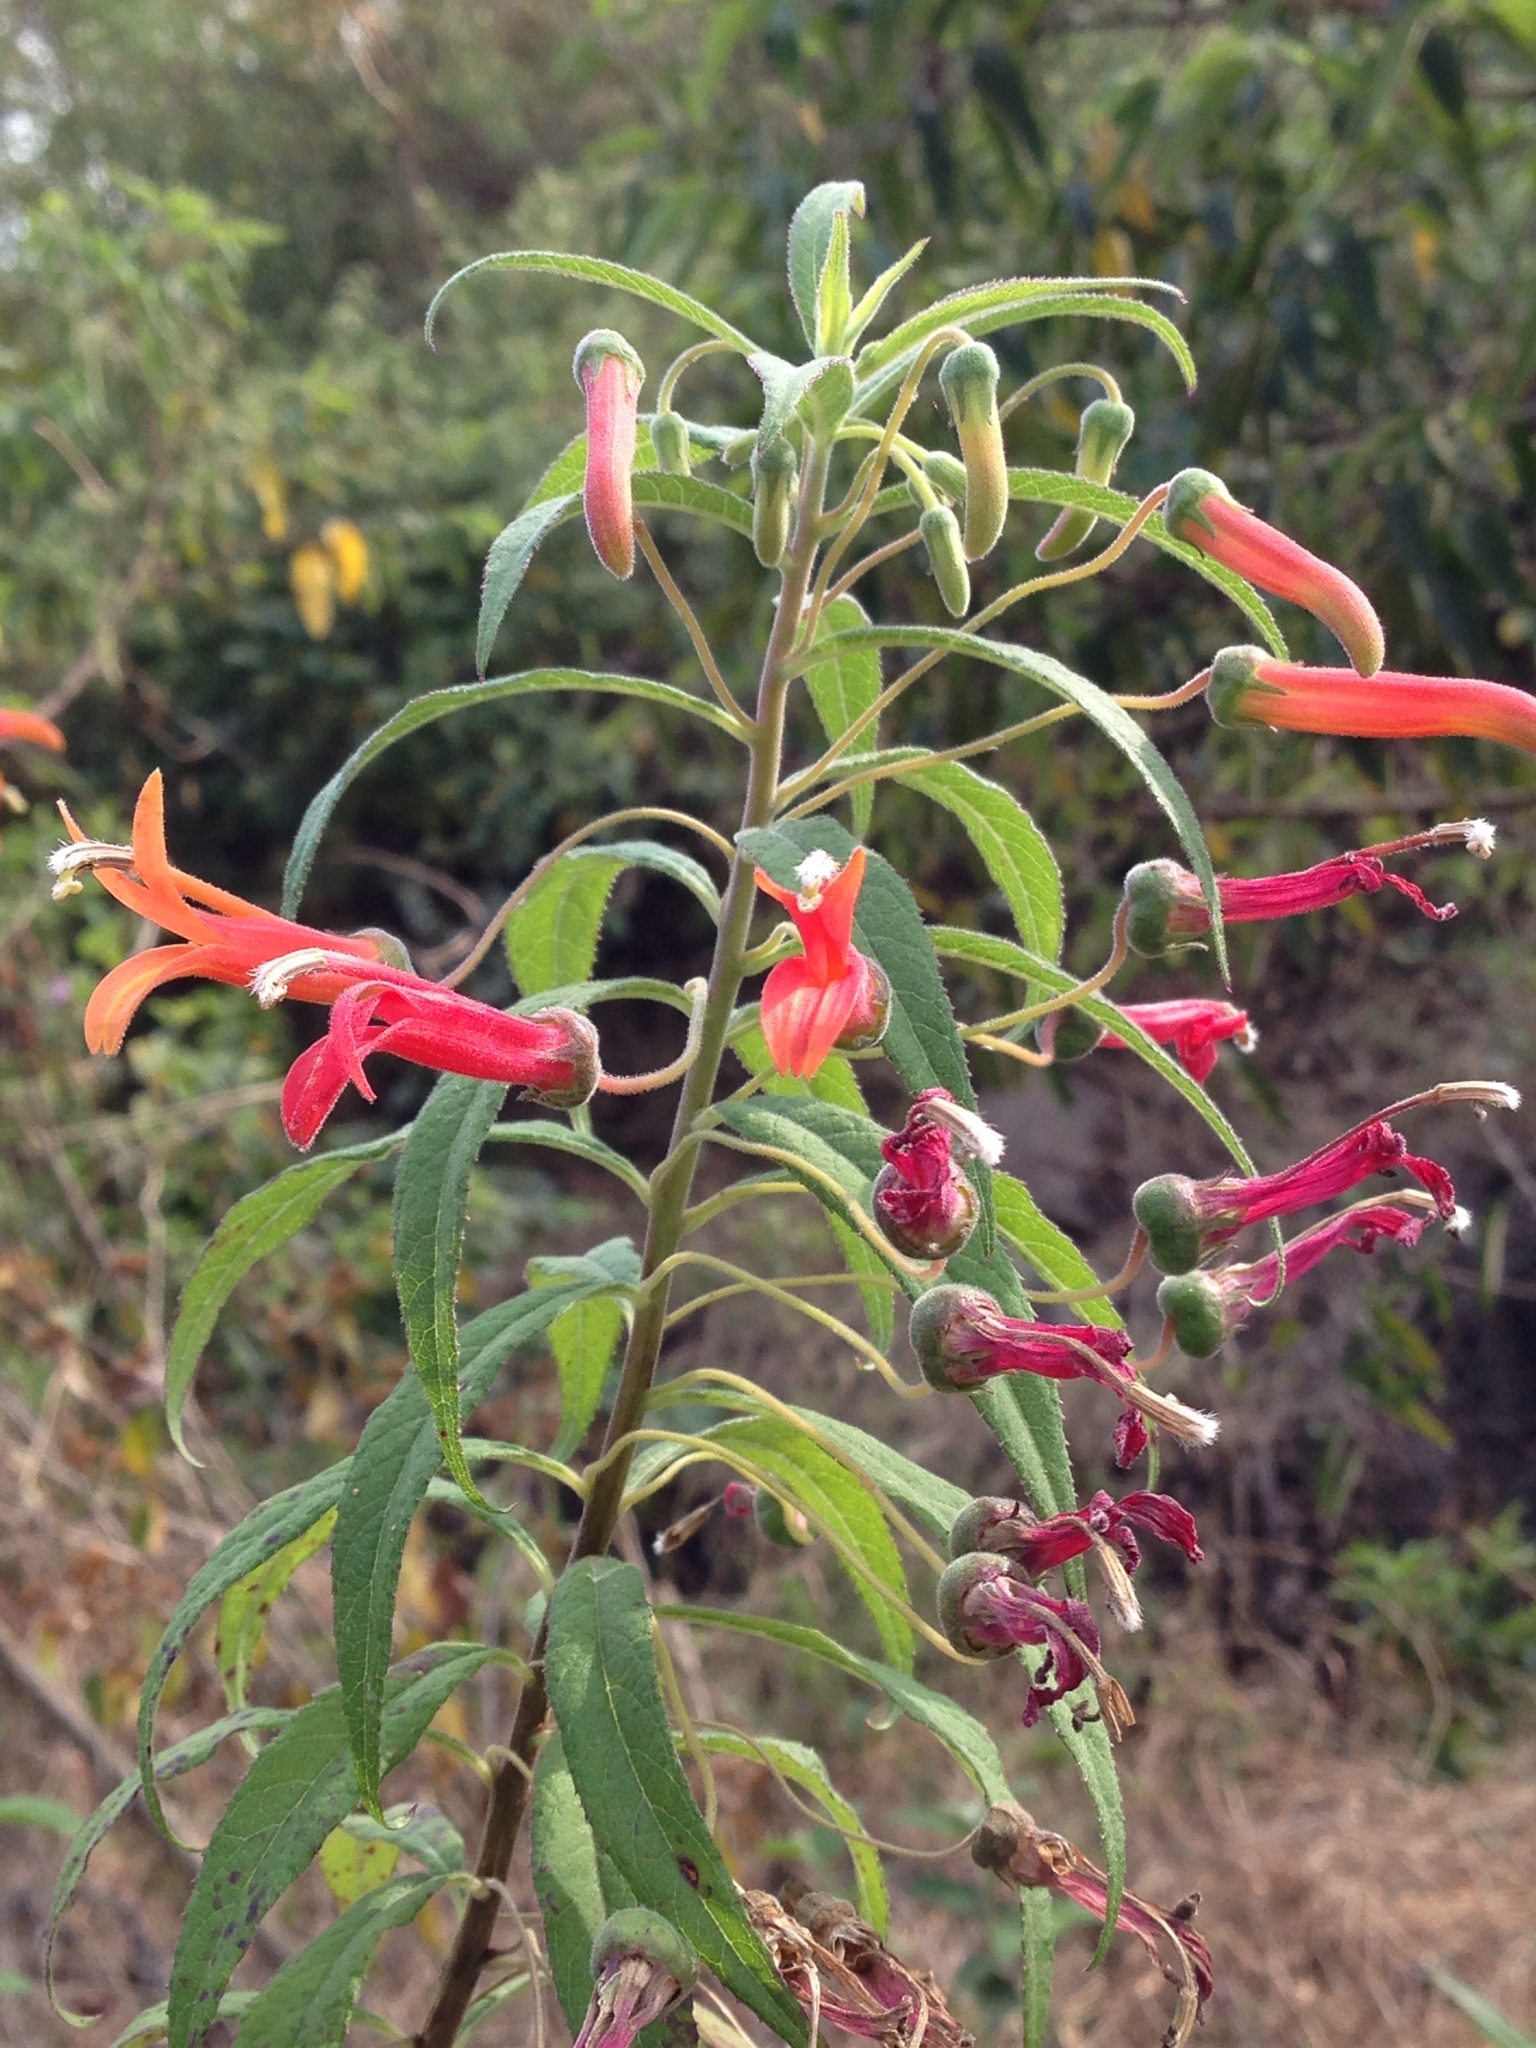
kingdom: Plantae
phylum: Tracheophyta
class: Magnoliopsida
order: Asterales
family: Campanulaceae
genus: Lobelia
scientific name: Lobelia laxiflora
